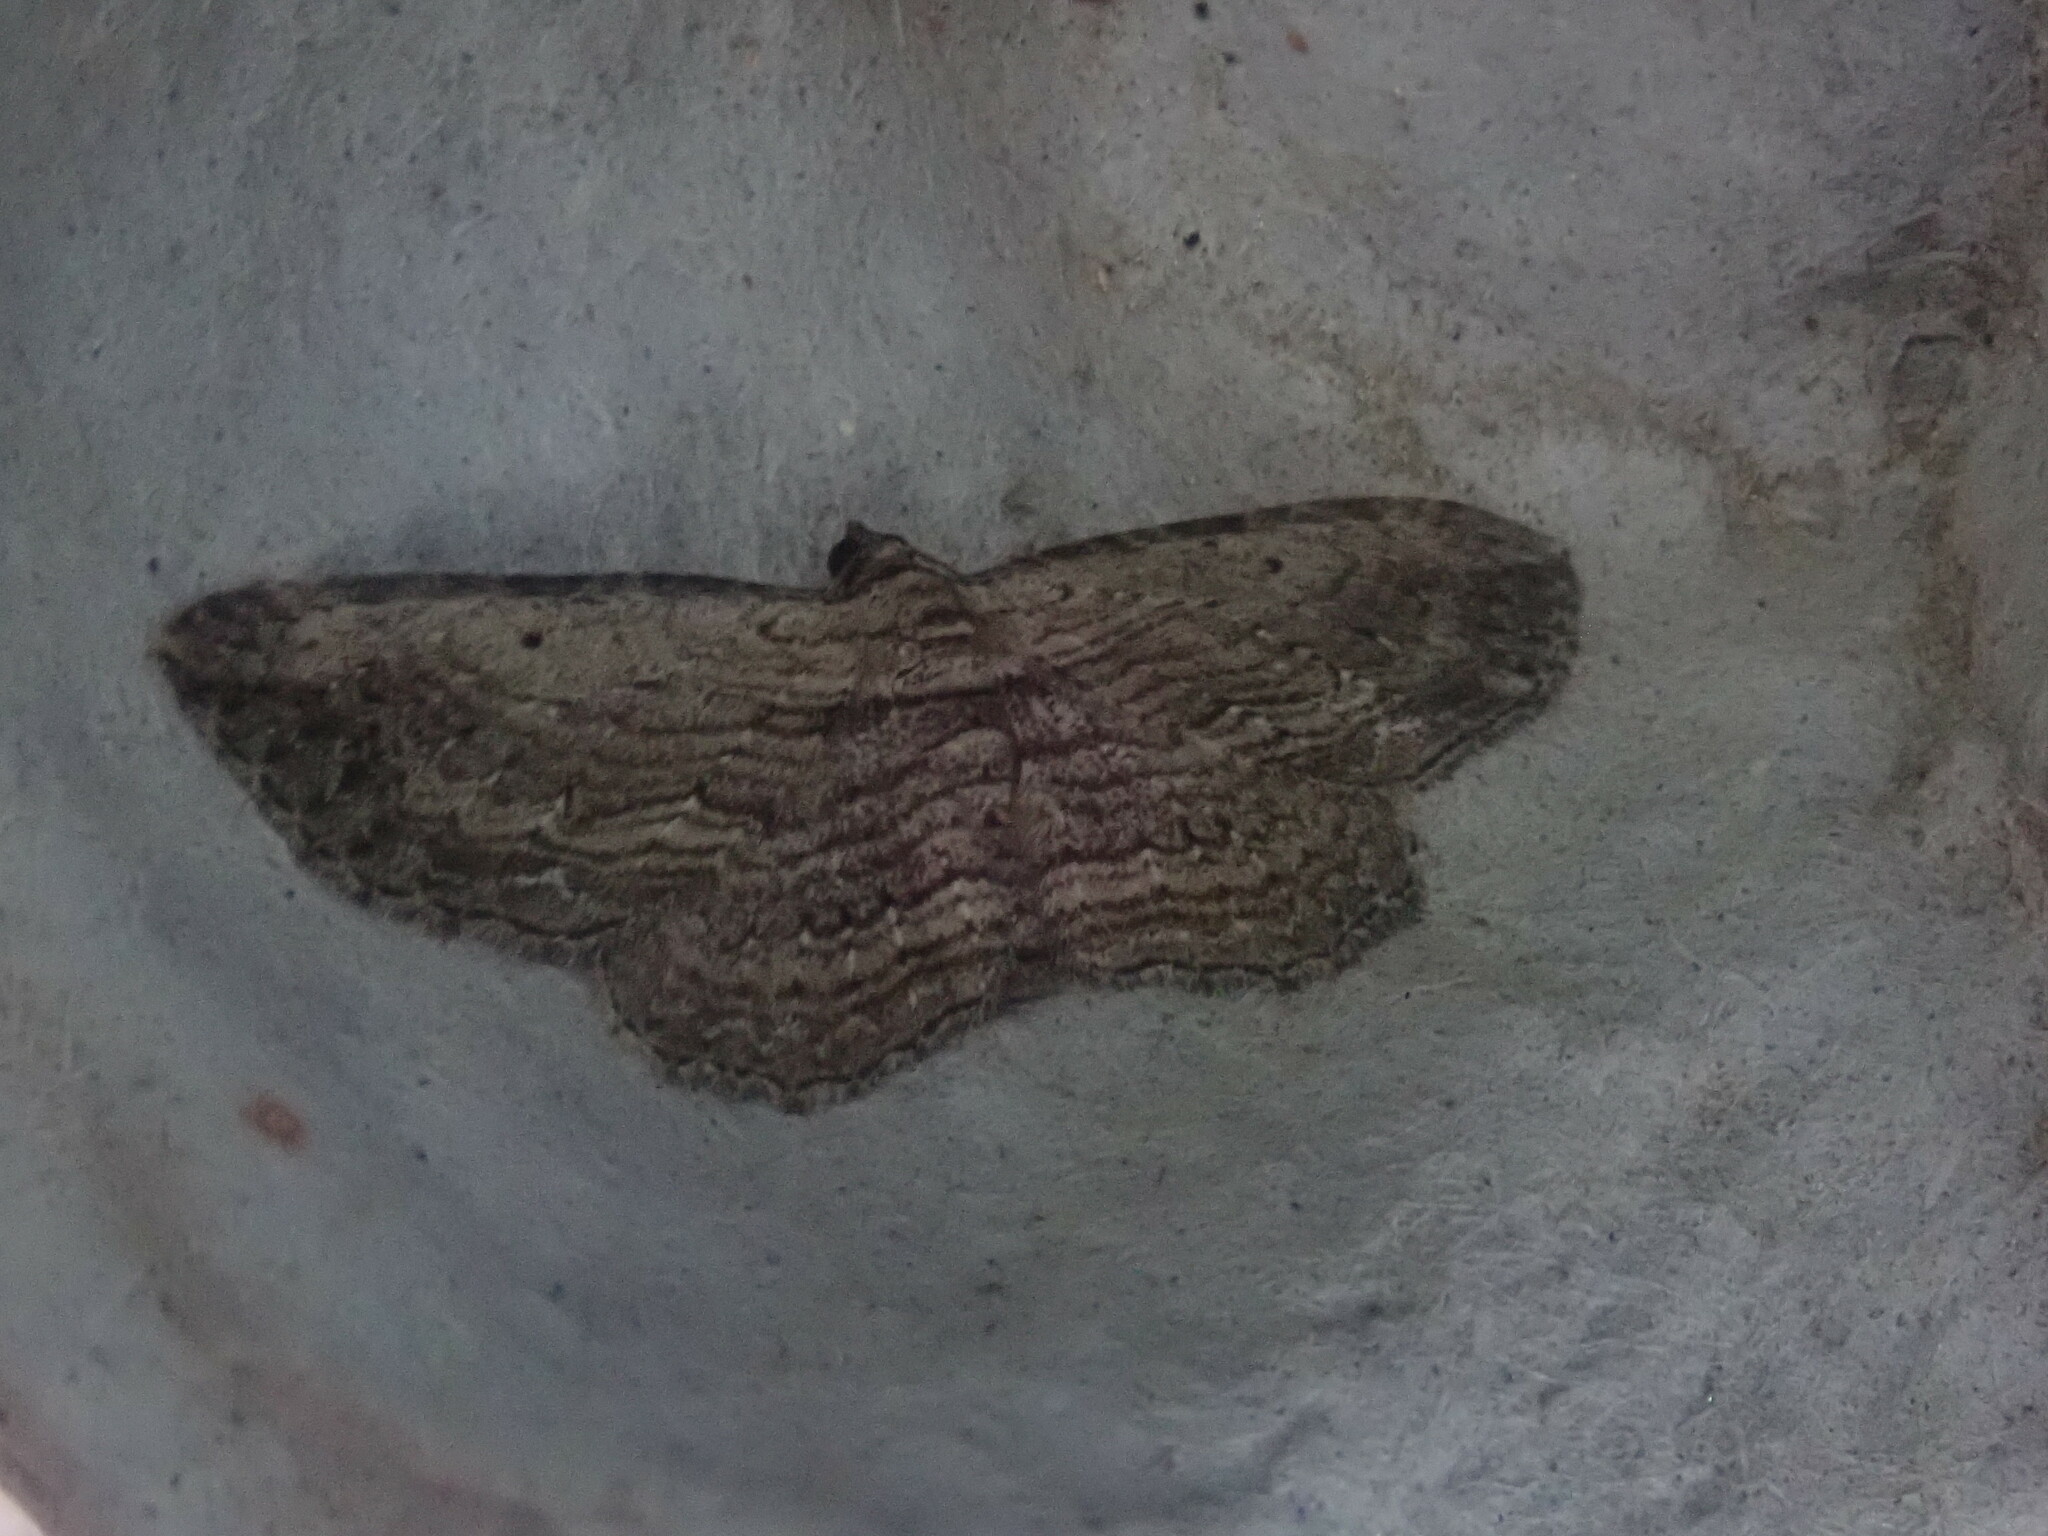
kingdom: Animalia
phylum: Arthropoda
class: Insecta
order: Lepidoptera
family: Geometridae
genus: Horisme
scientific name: Horisme intestinata
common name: Brown bark carpet
